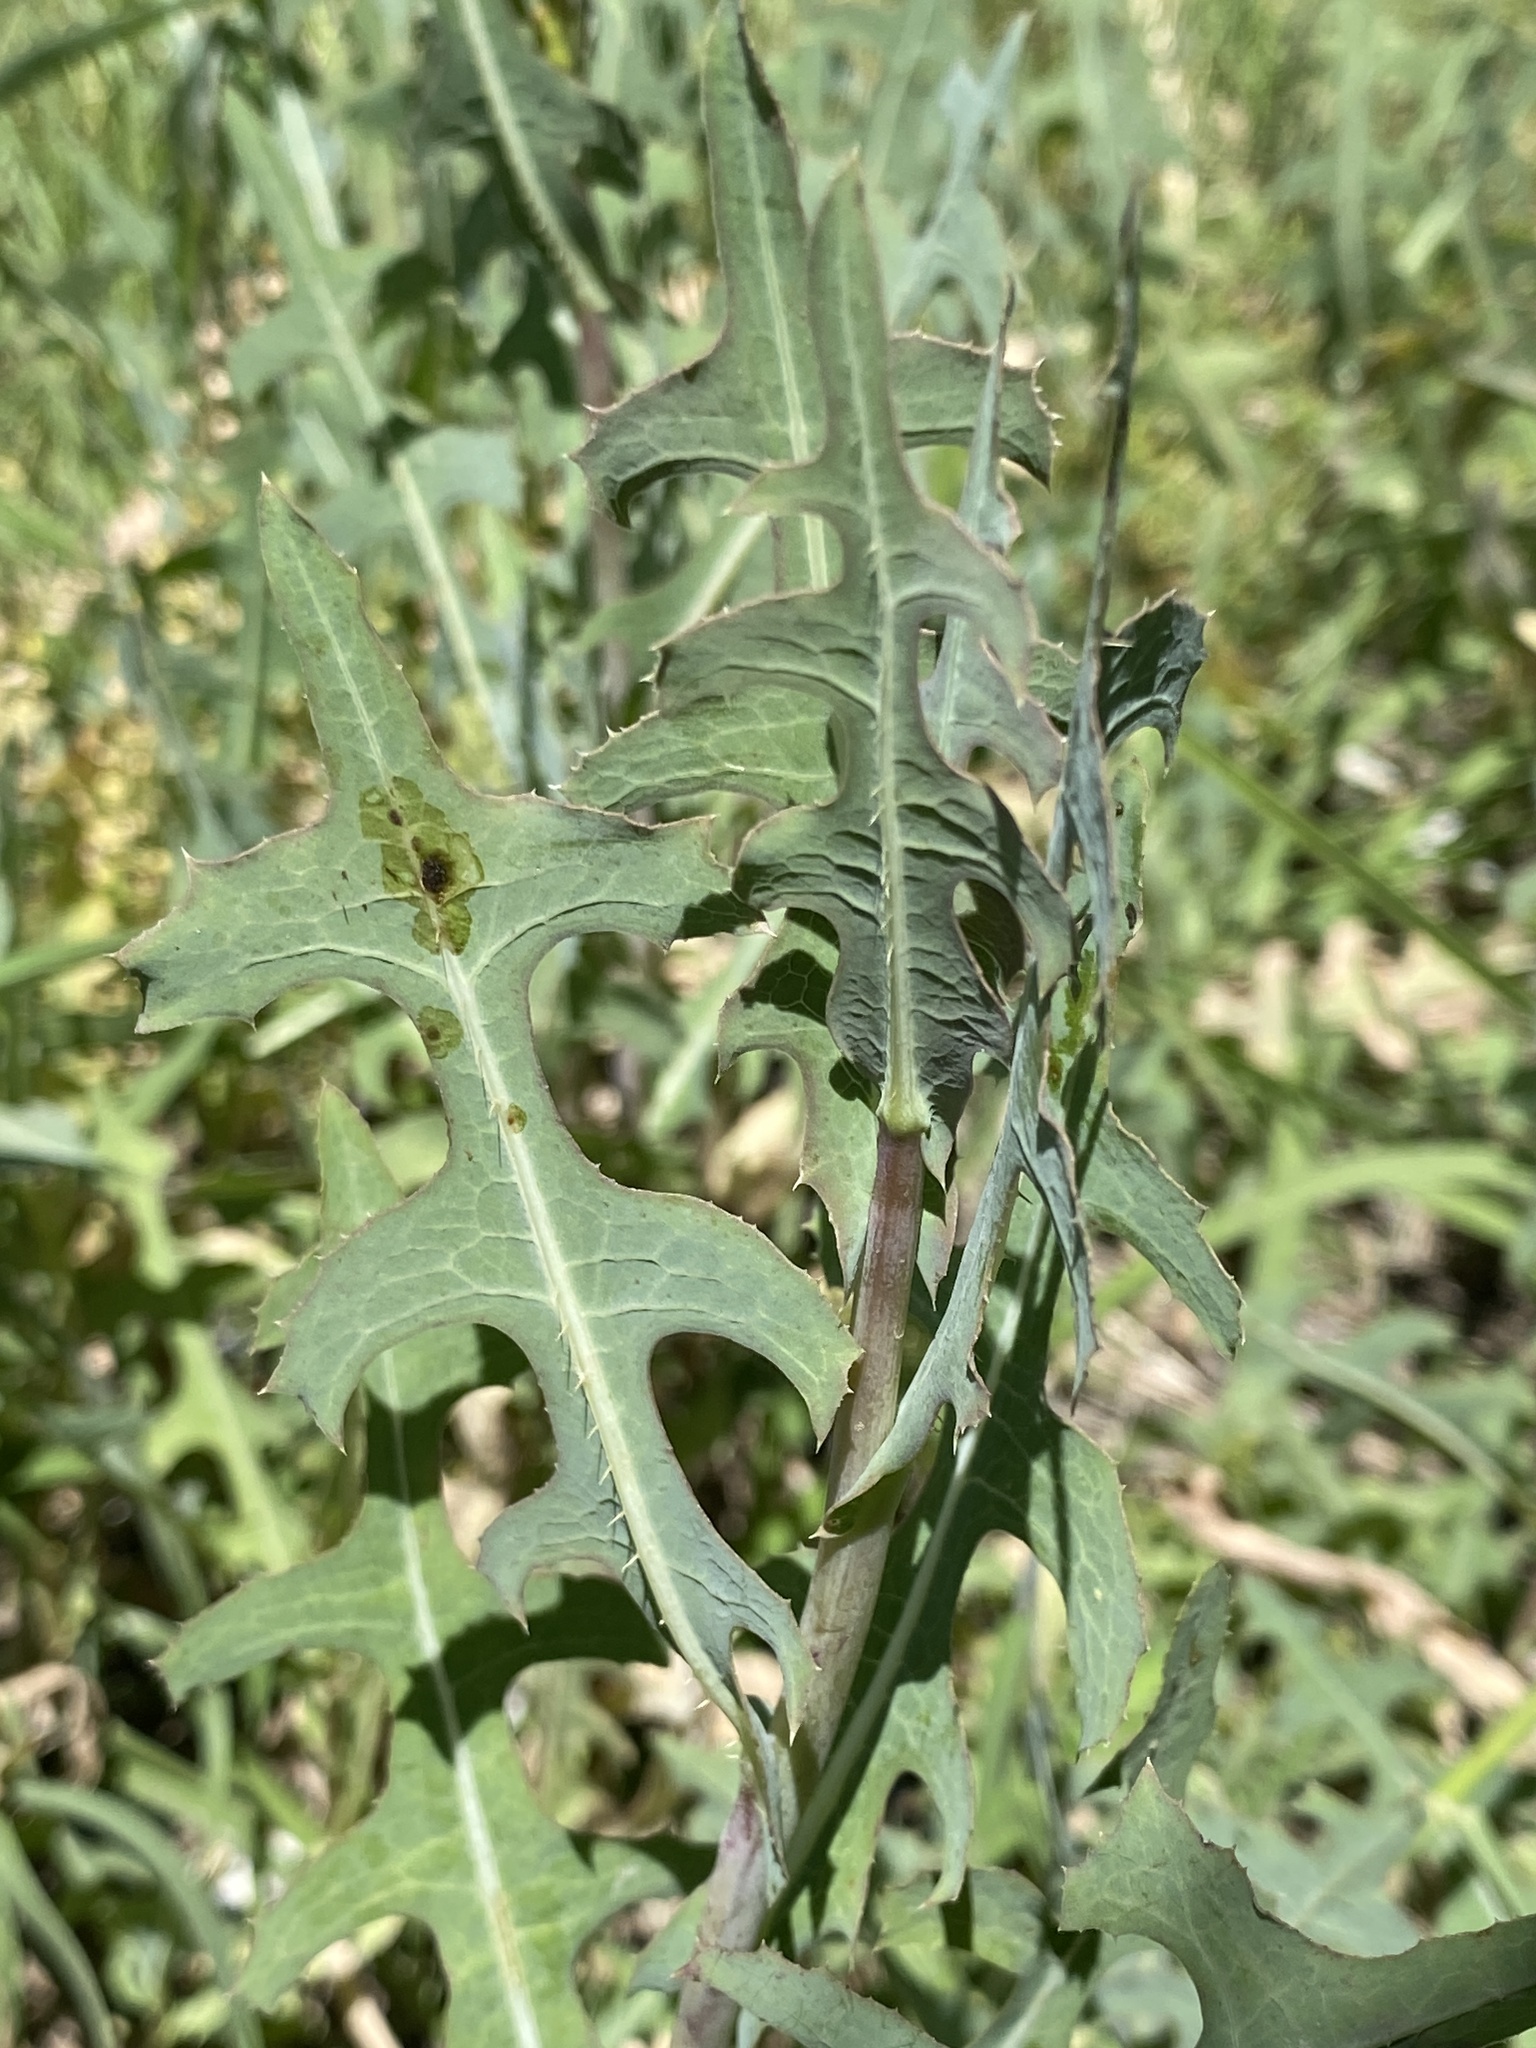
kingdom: Plantae
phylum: Tracheophyta
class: Magnoliopsida
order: Asterales
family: Asteraceae
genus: Lactuca
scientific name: Lactuca serriola
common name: Prickly lettuce
